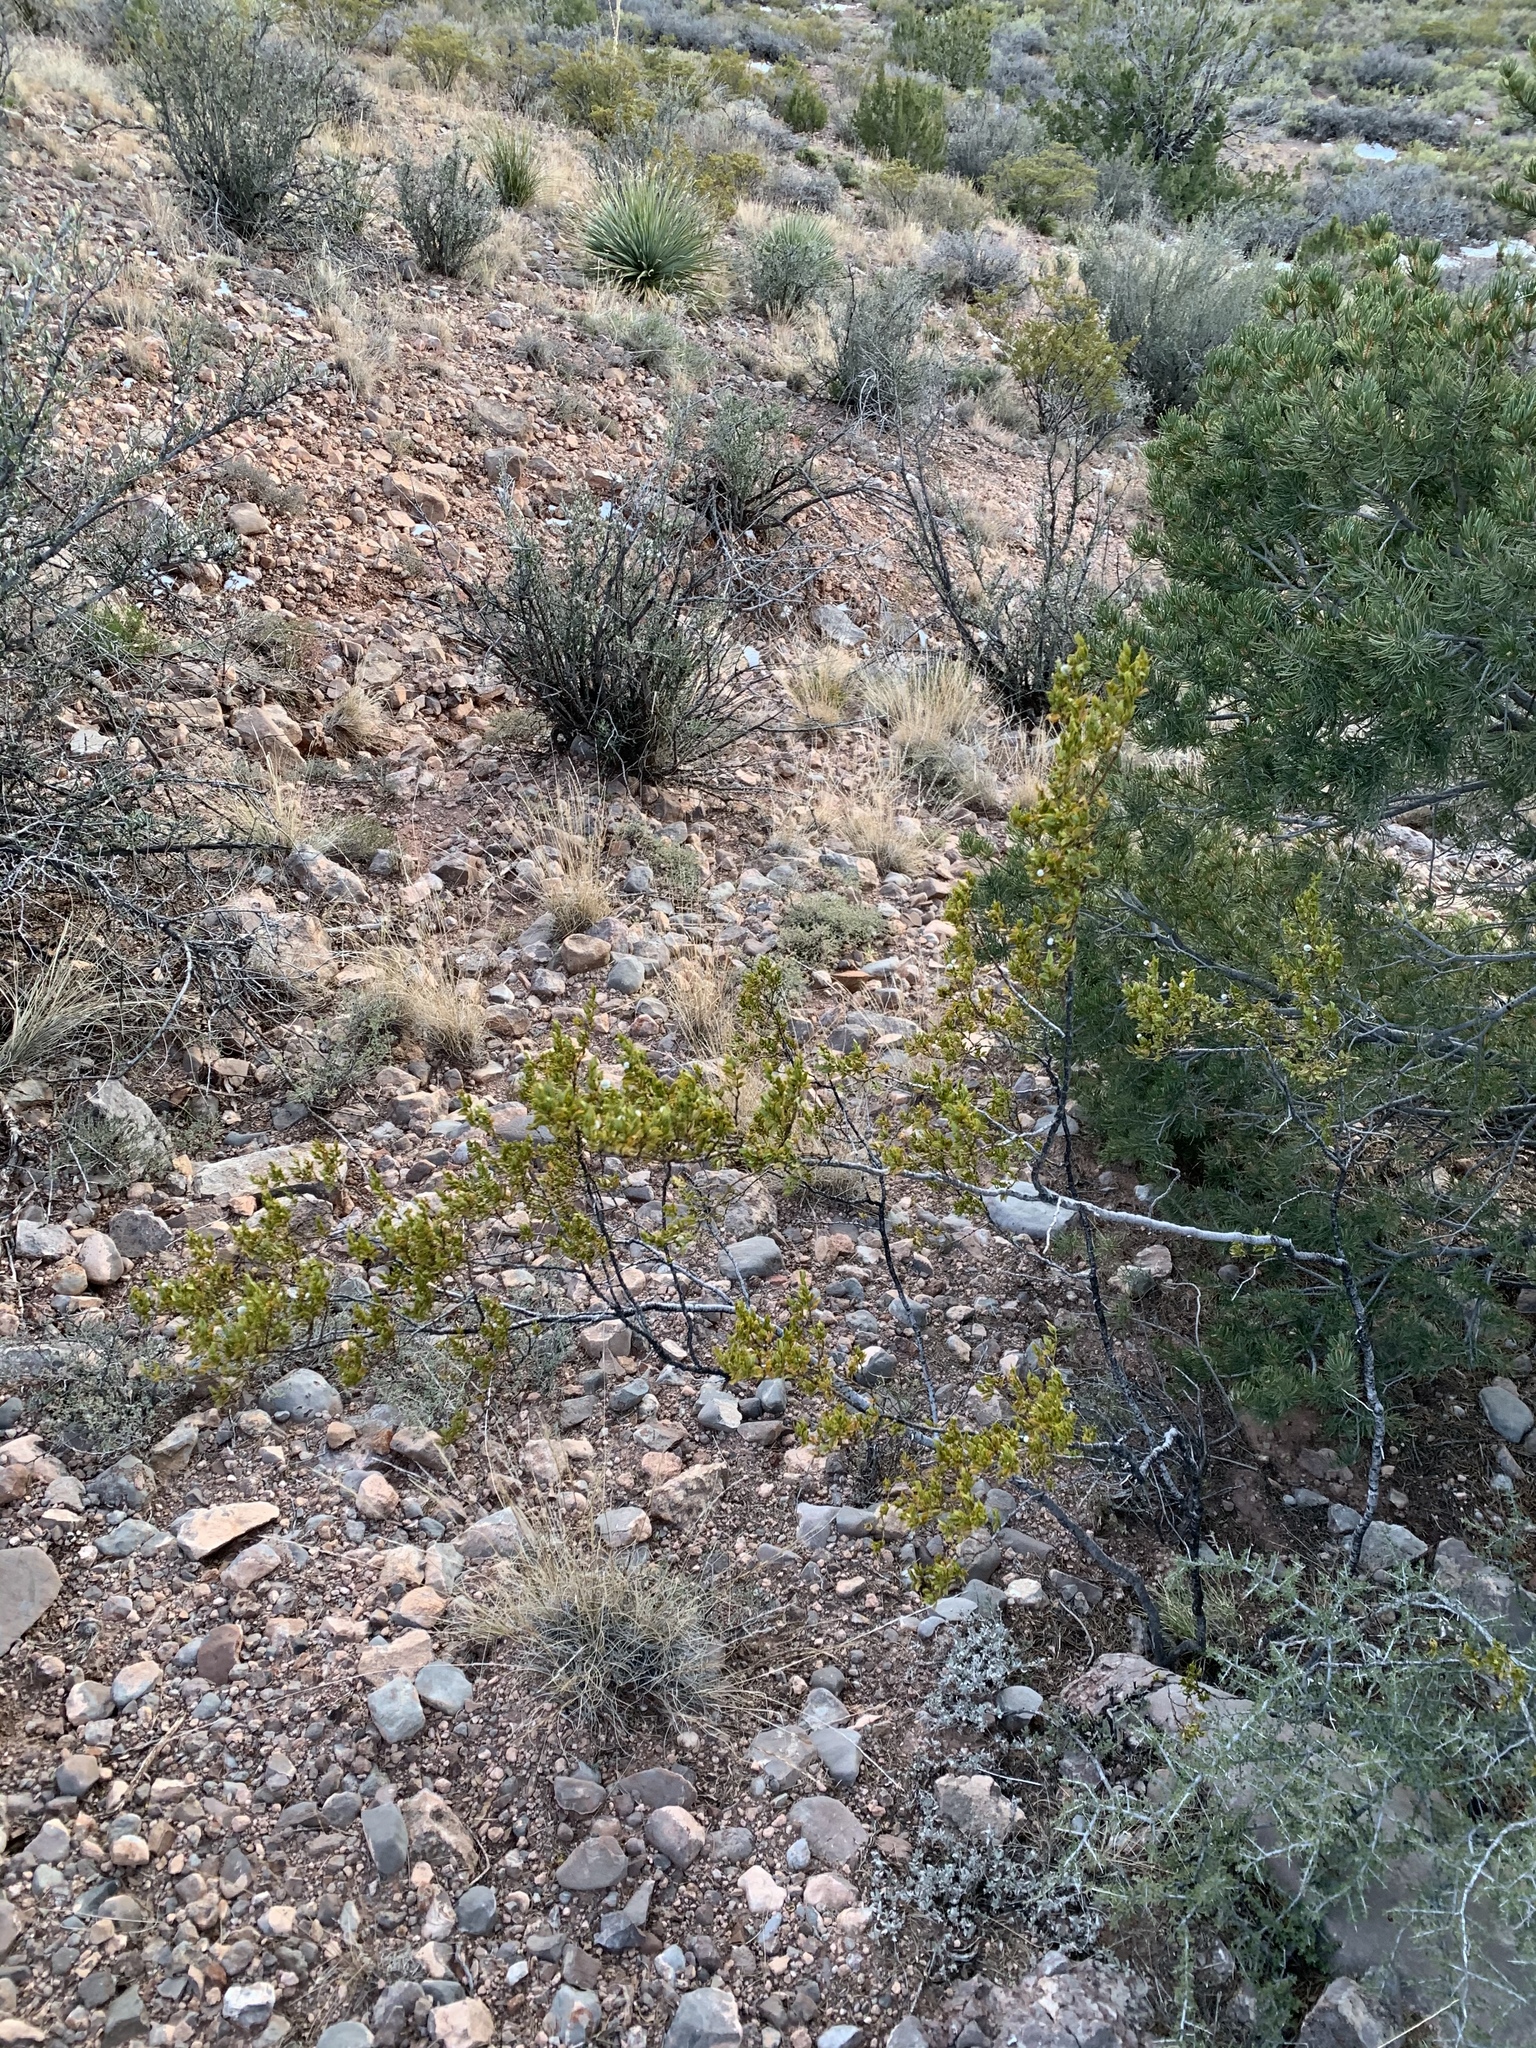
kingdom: Plantae
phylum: Tracheophyta
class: Magnoliopsida
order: Zygophyllales
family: Zygophyllaceae
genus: Larrea
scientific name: Larrea tridentata
